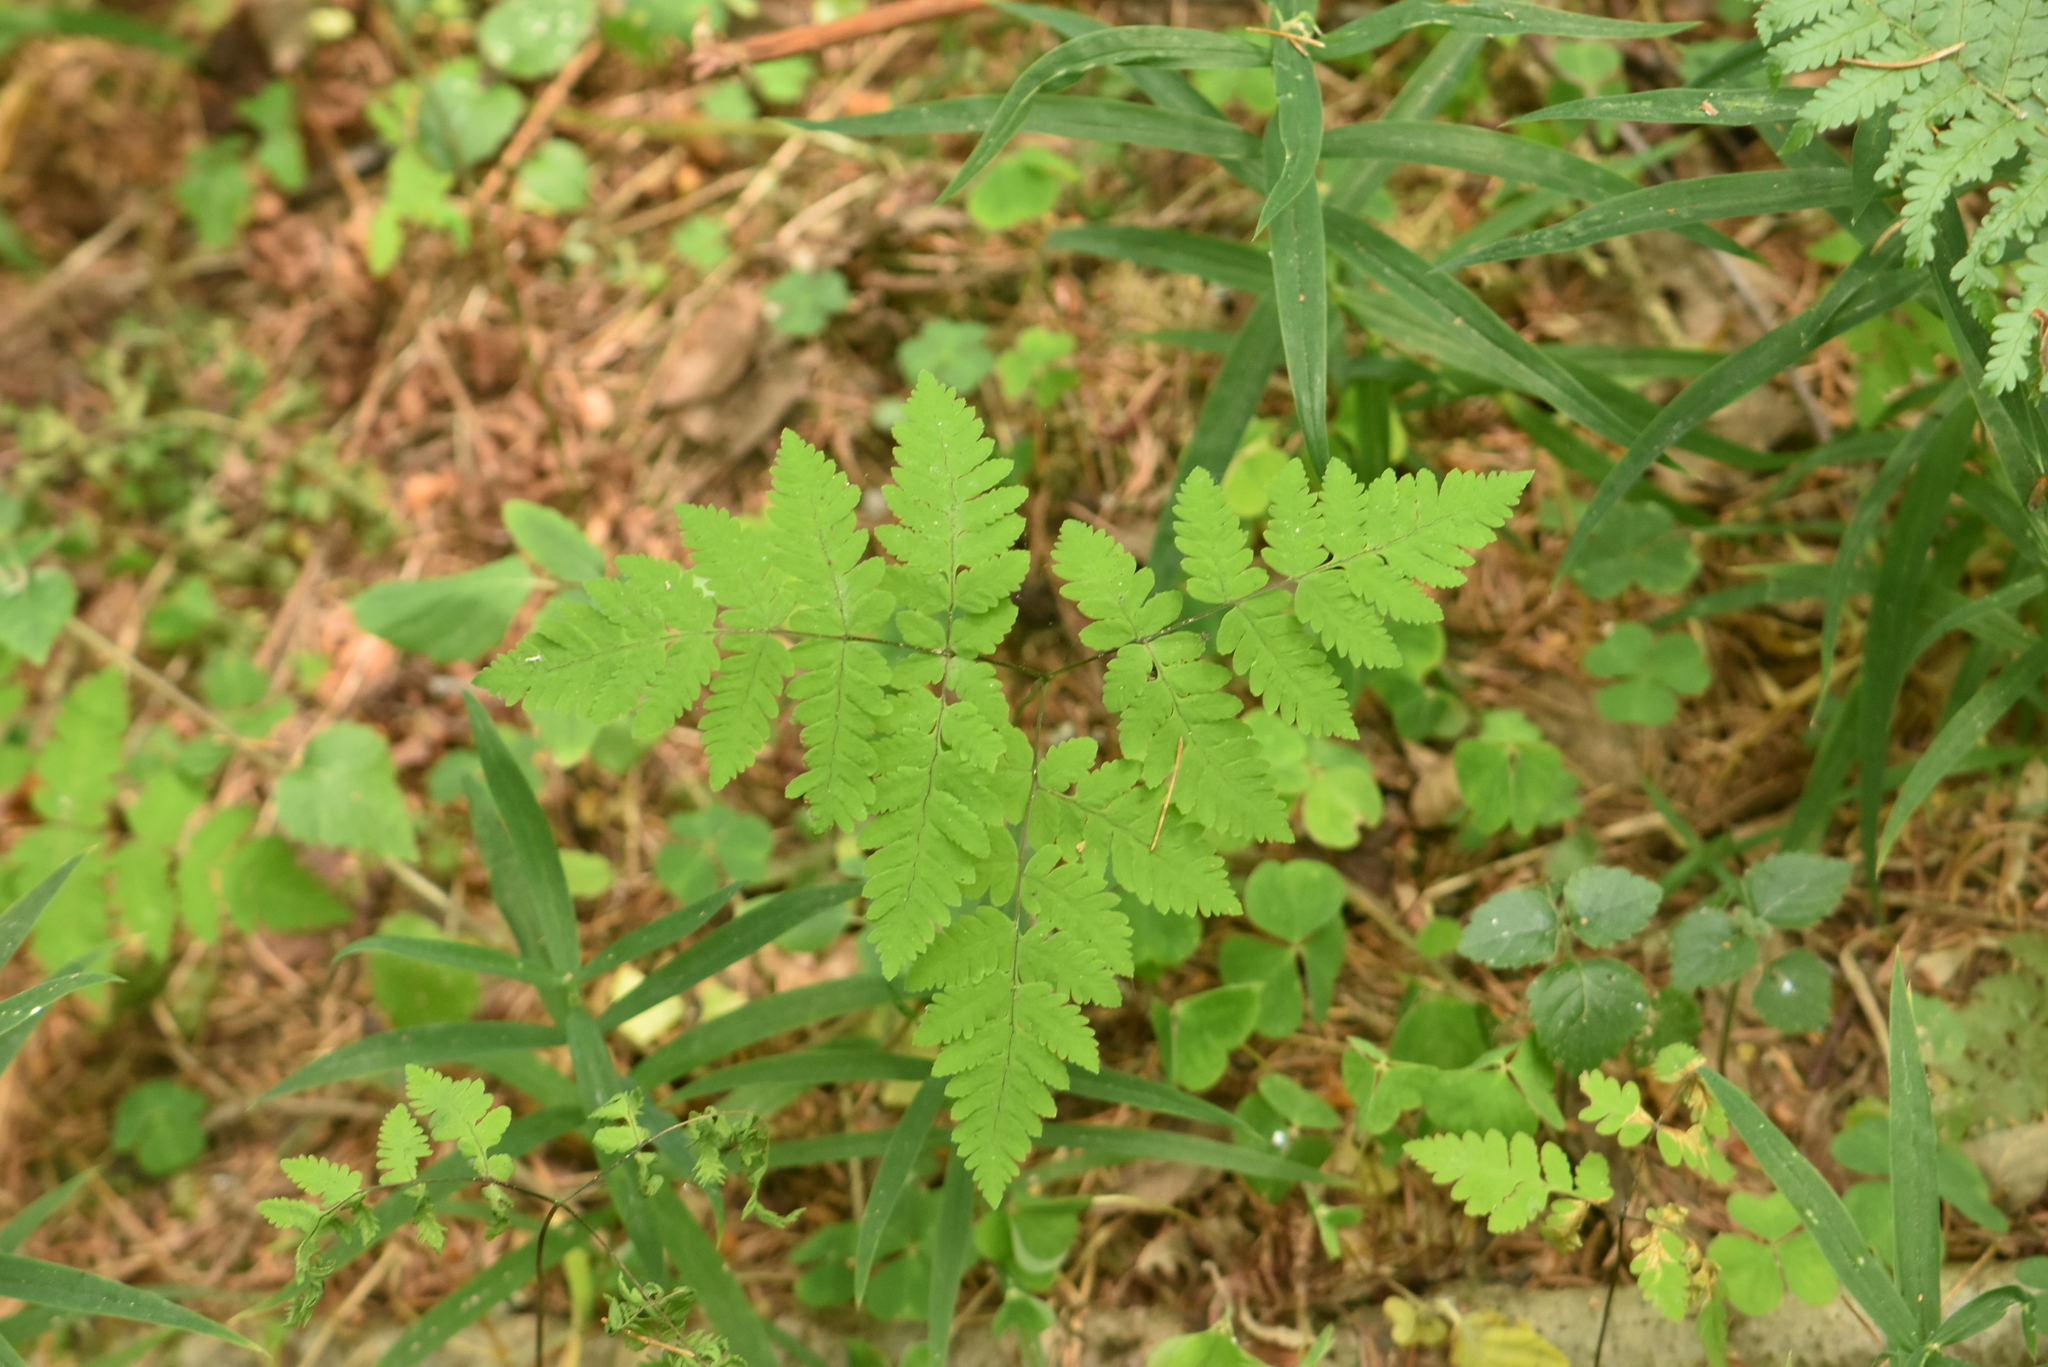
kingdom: Plantae
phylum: Tracheophyta
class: Polypodiopsida
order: Polypodiales
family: Cystopteridaceae
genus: Gymnocarpium
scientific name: Gymnocarpium dryopteris
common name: Oak fern
